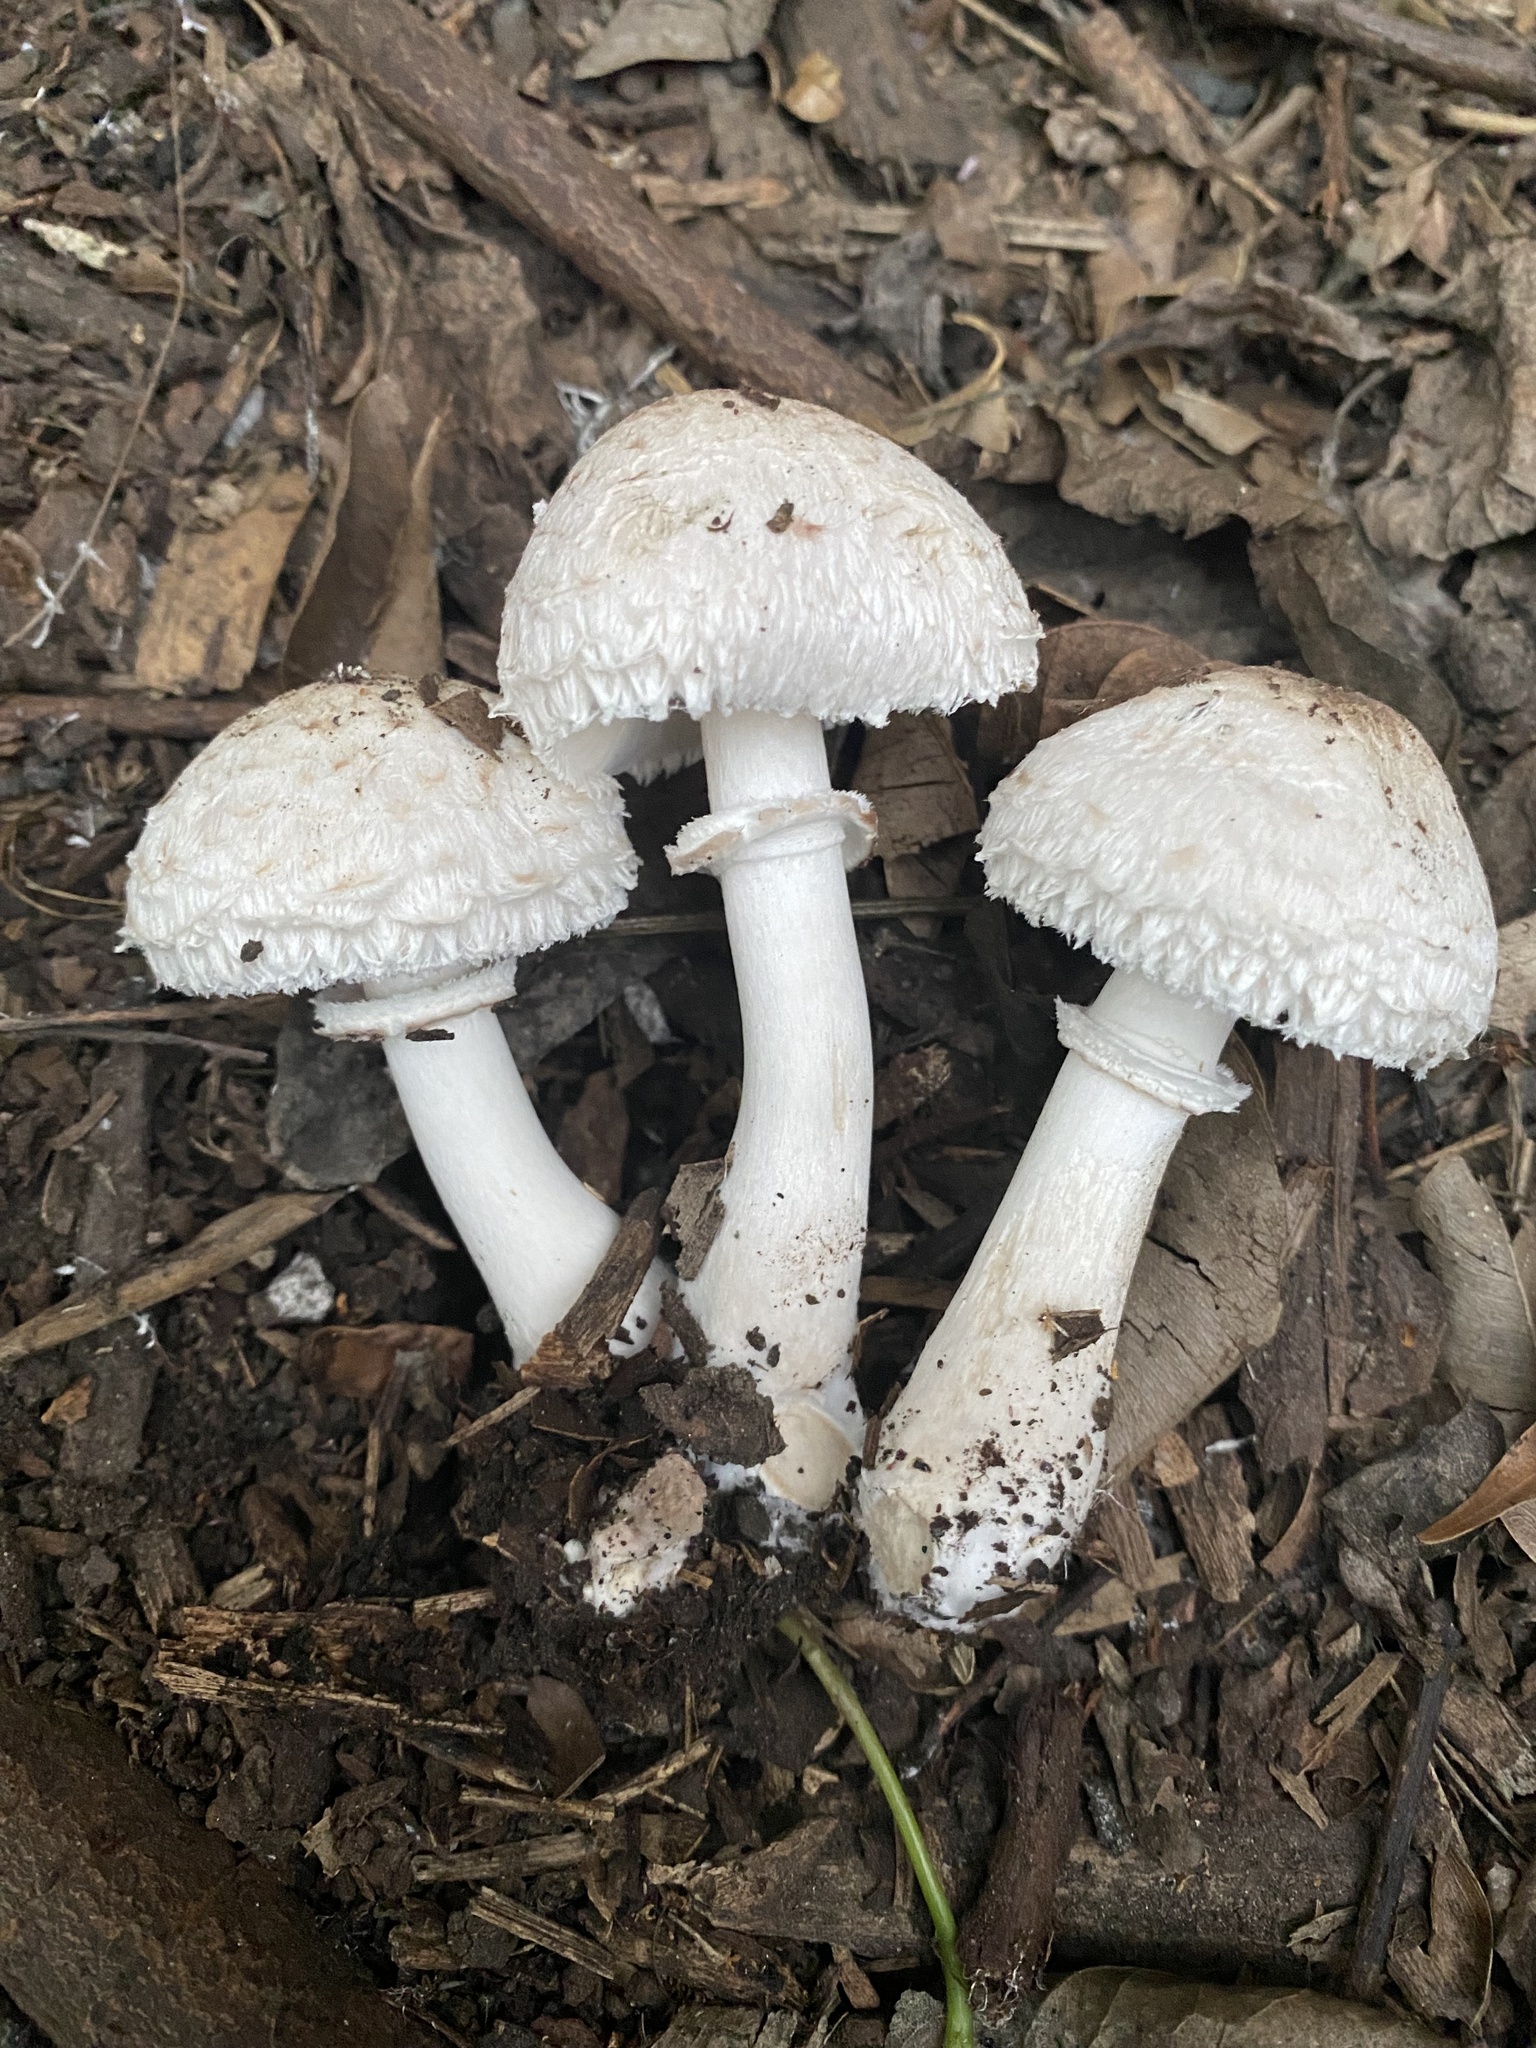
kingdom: Fungi
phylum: Basidiomycota
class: Agaricomycetes
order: Agaricales
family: Agaricaceae
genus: Leucoagaricus
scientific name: Leucoagaricus barssii
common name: Smoky dapperling
